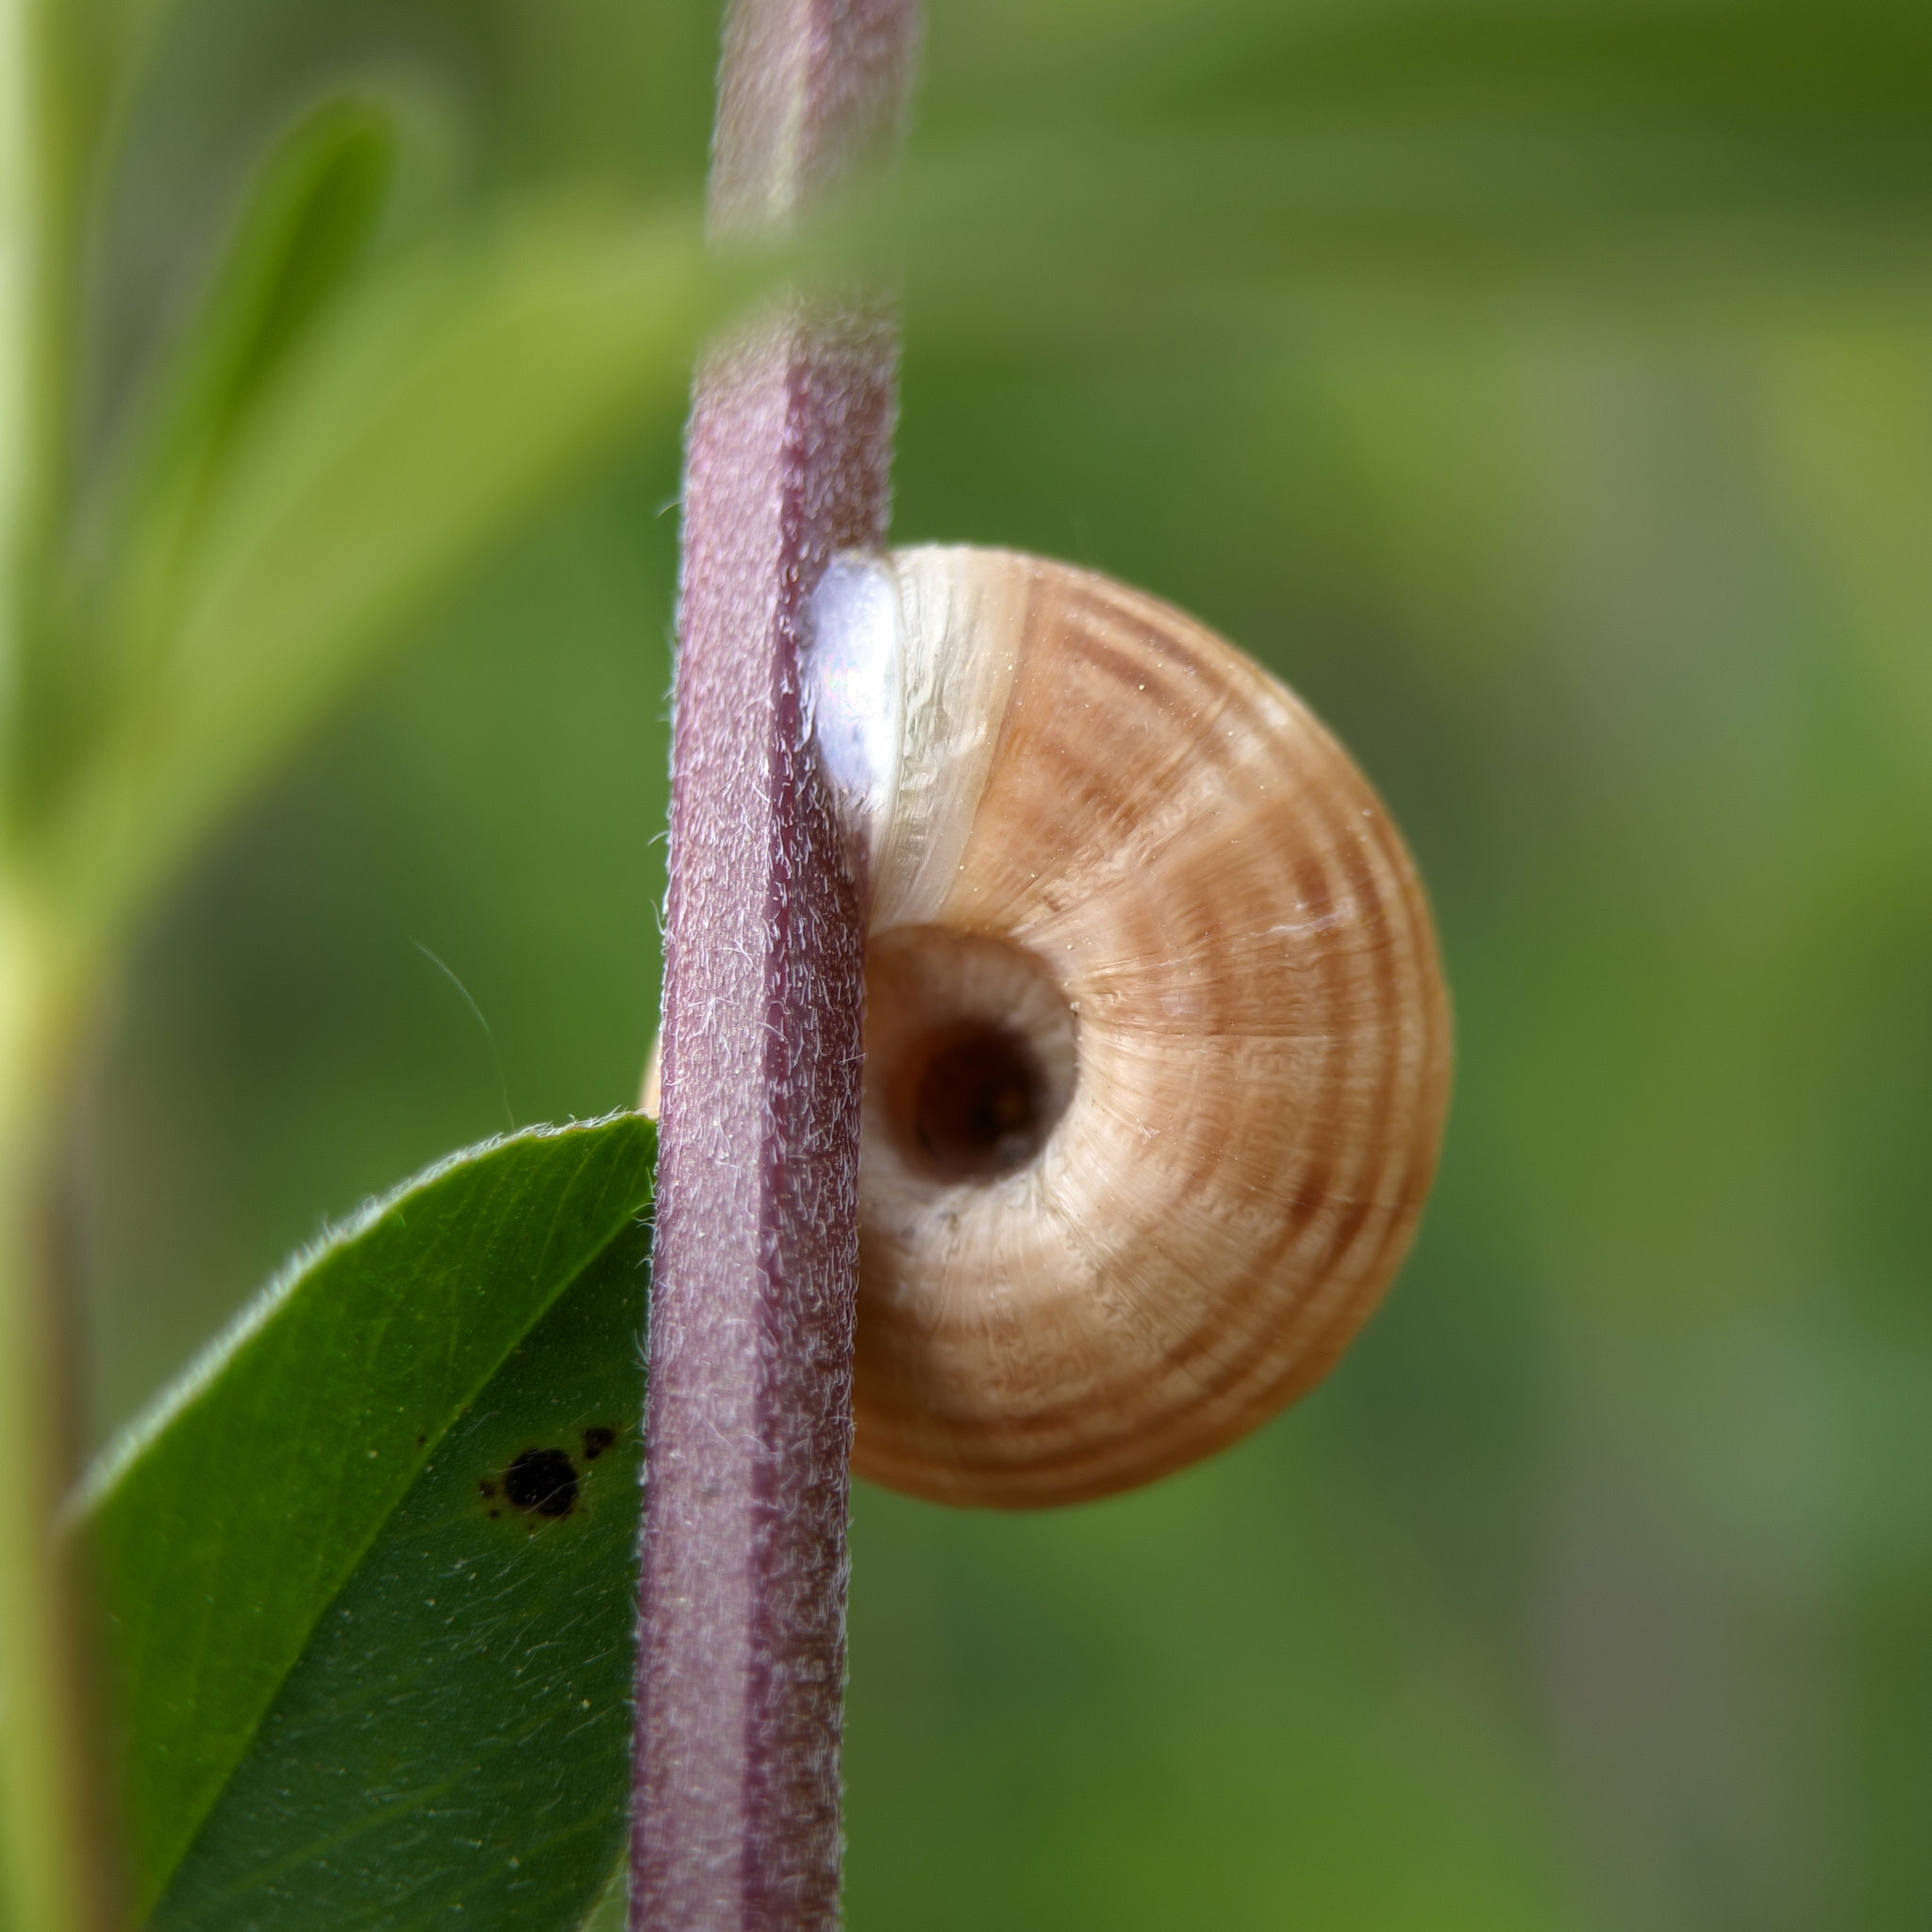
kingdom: Animalia
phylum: Mollusca
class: Gastropoda
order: Stylommatophora
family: Geomitridae
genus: Helicella
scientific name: Helicella itala
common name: Heath snail
